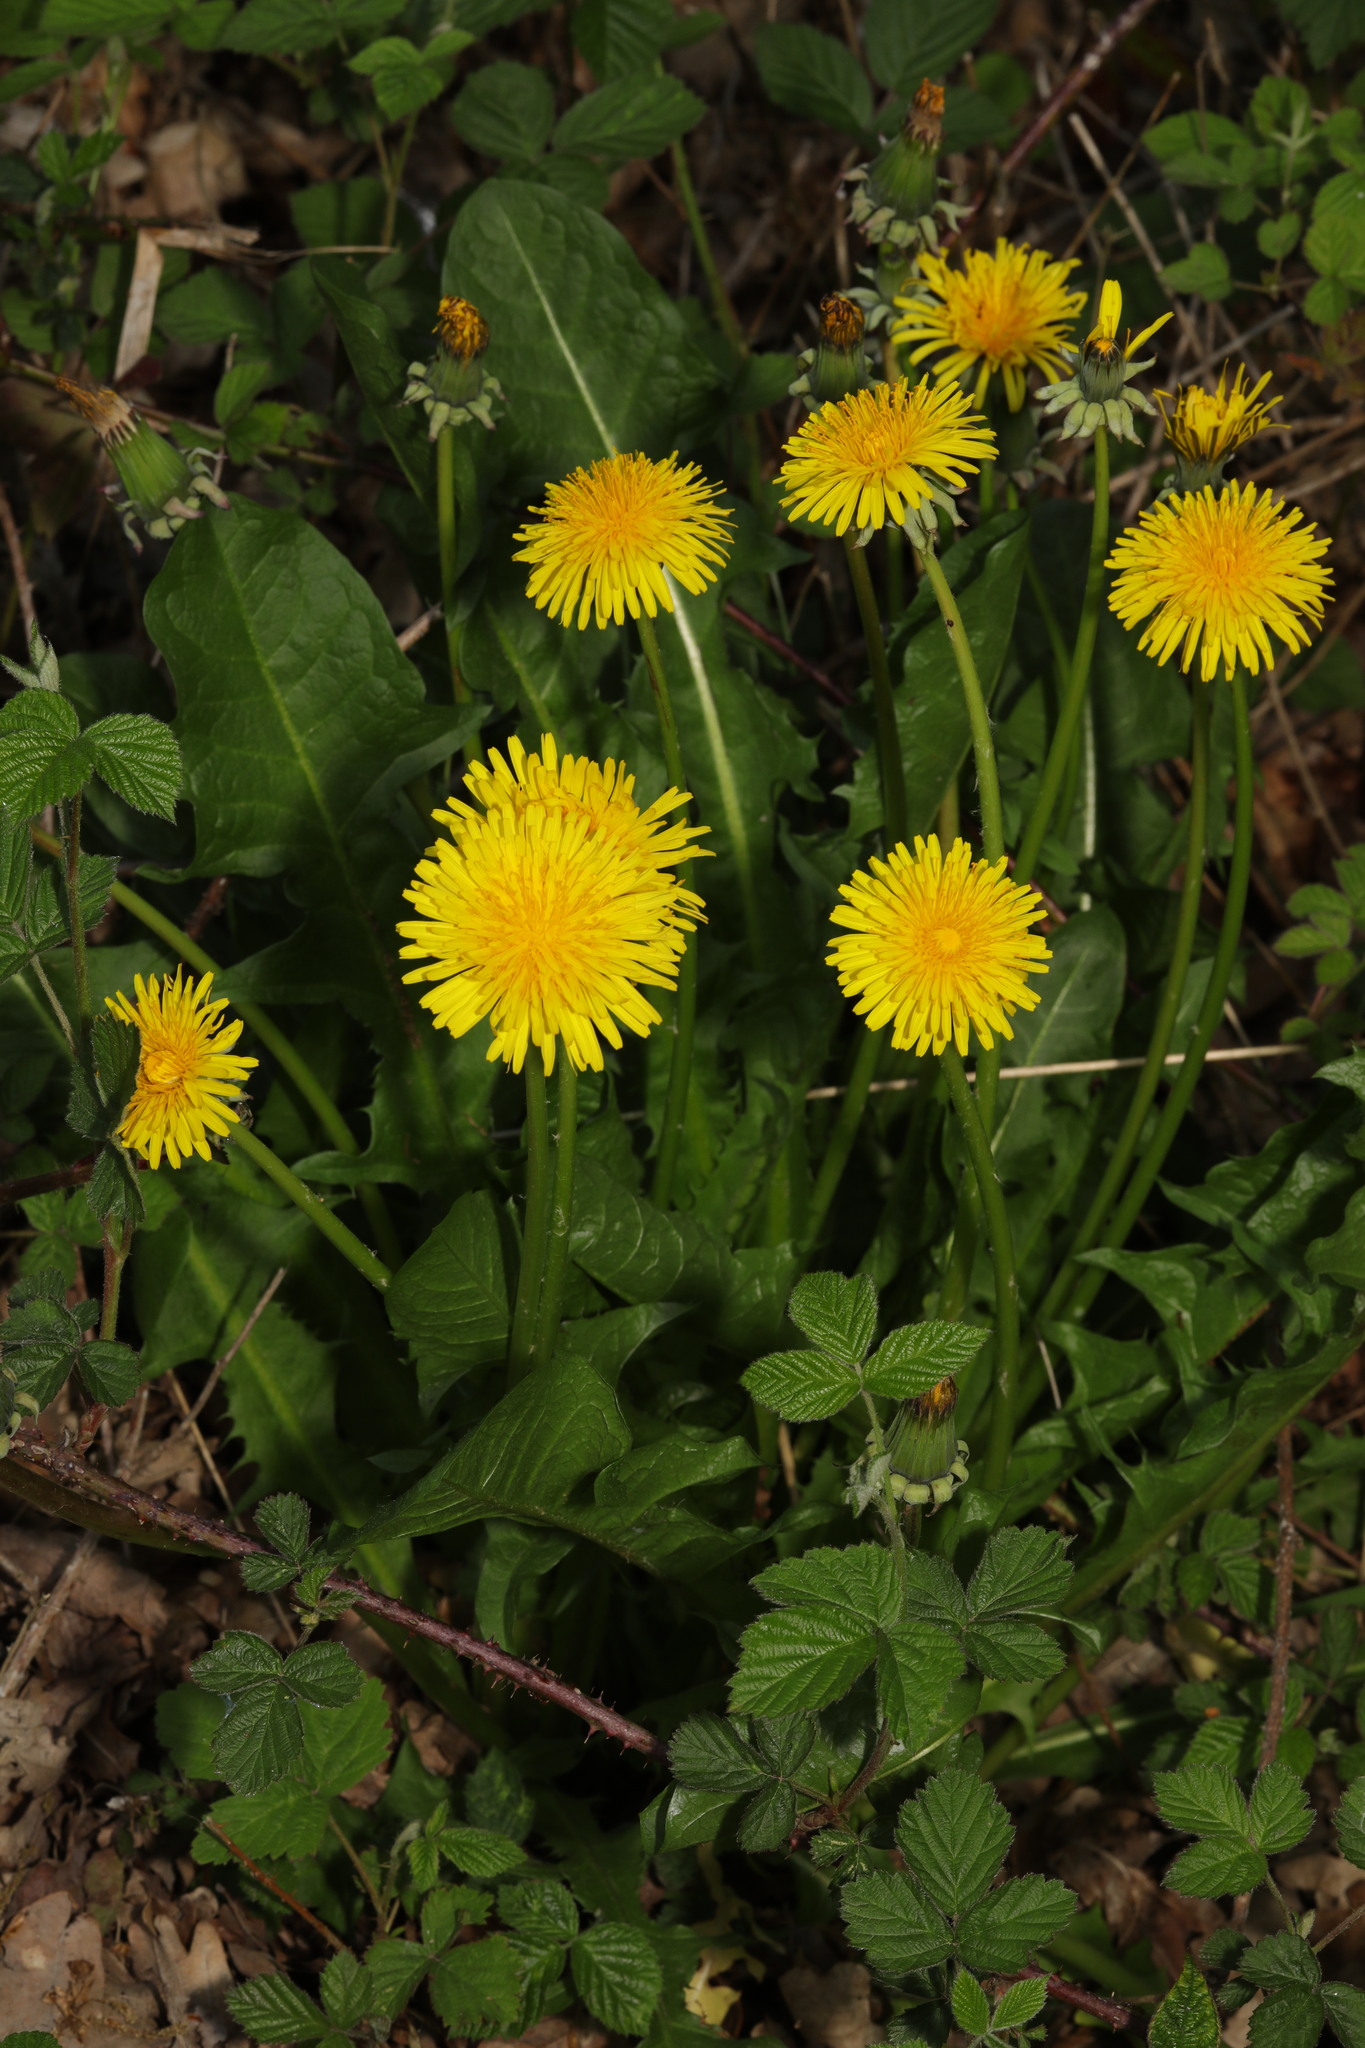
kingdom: Plantae
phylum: Tracheophyta
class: Magnoliopsida
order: Asterales
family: Asteraceae
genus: Taraxacum
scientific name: Taraxacum officinale
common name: Common dandelion
